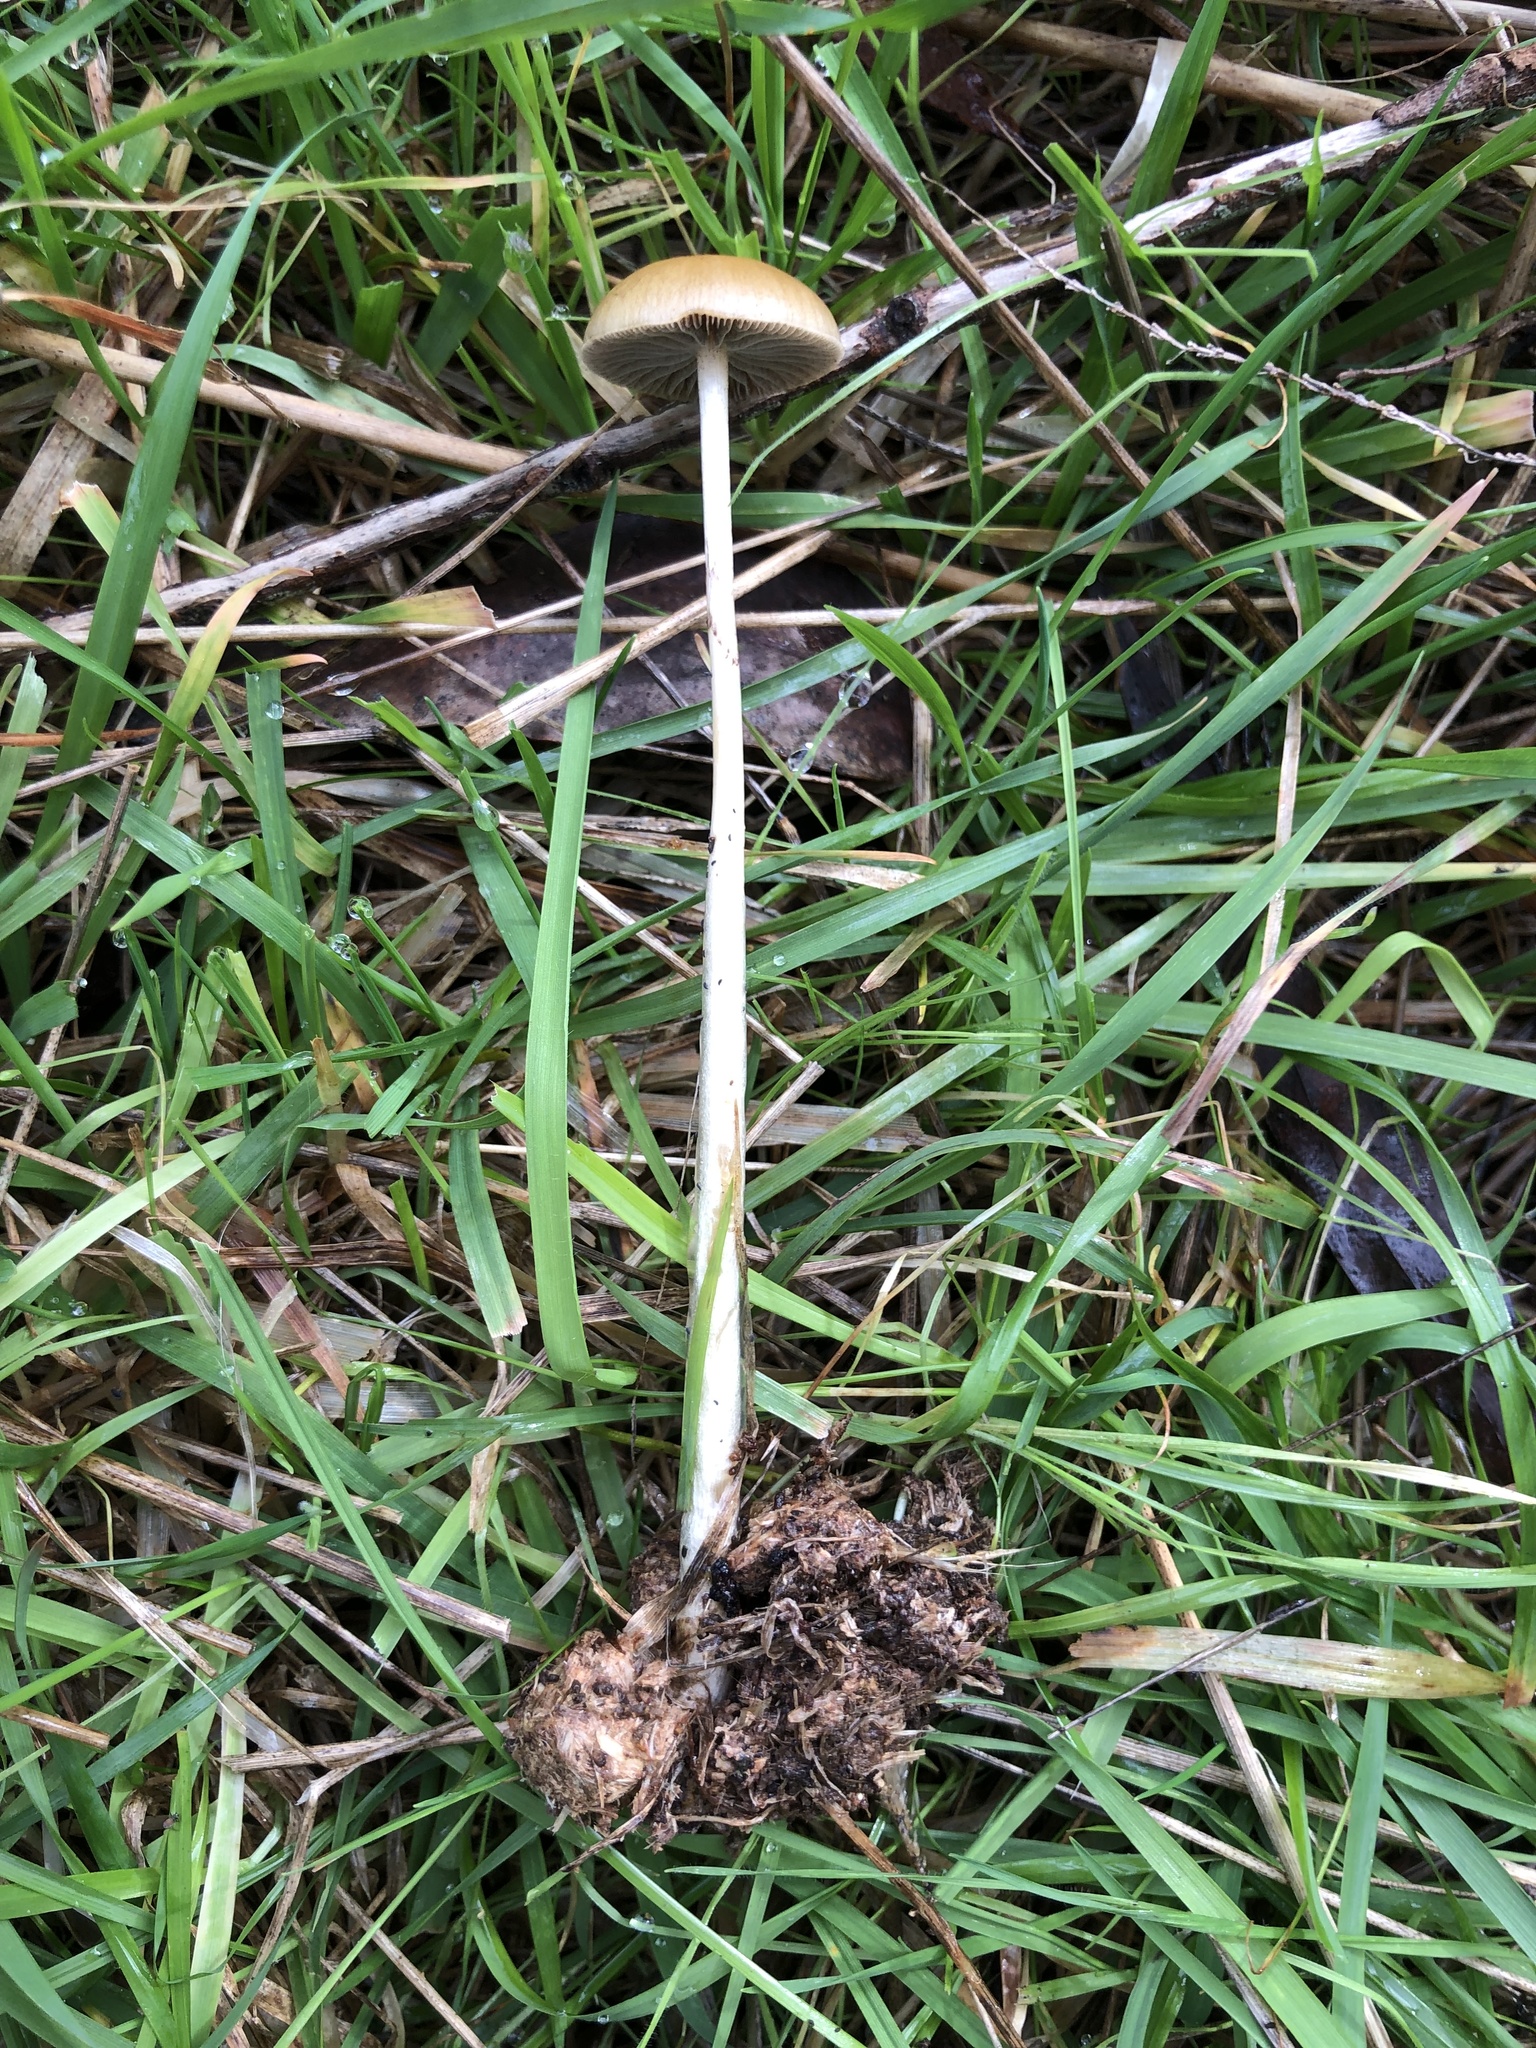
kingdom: Fungi
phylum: Basidiomycota
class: Agaricomycetes
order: Agaricales
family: Strophariaceae
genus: Protostropharia
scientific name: Protostropharia semiglobata
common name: Dung roundhead
